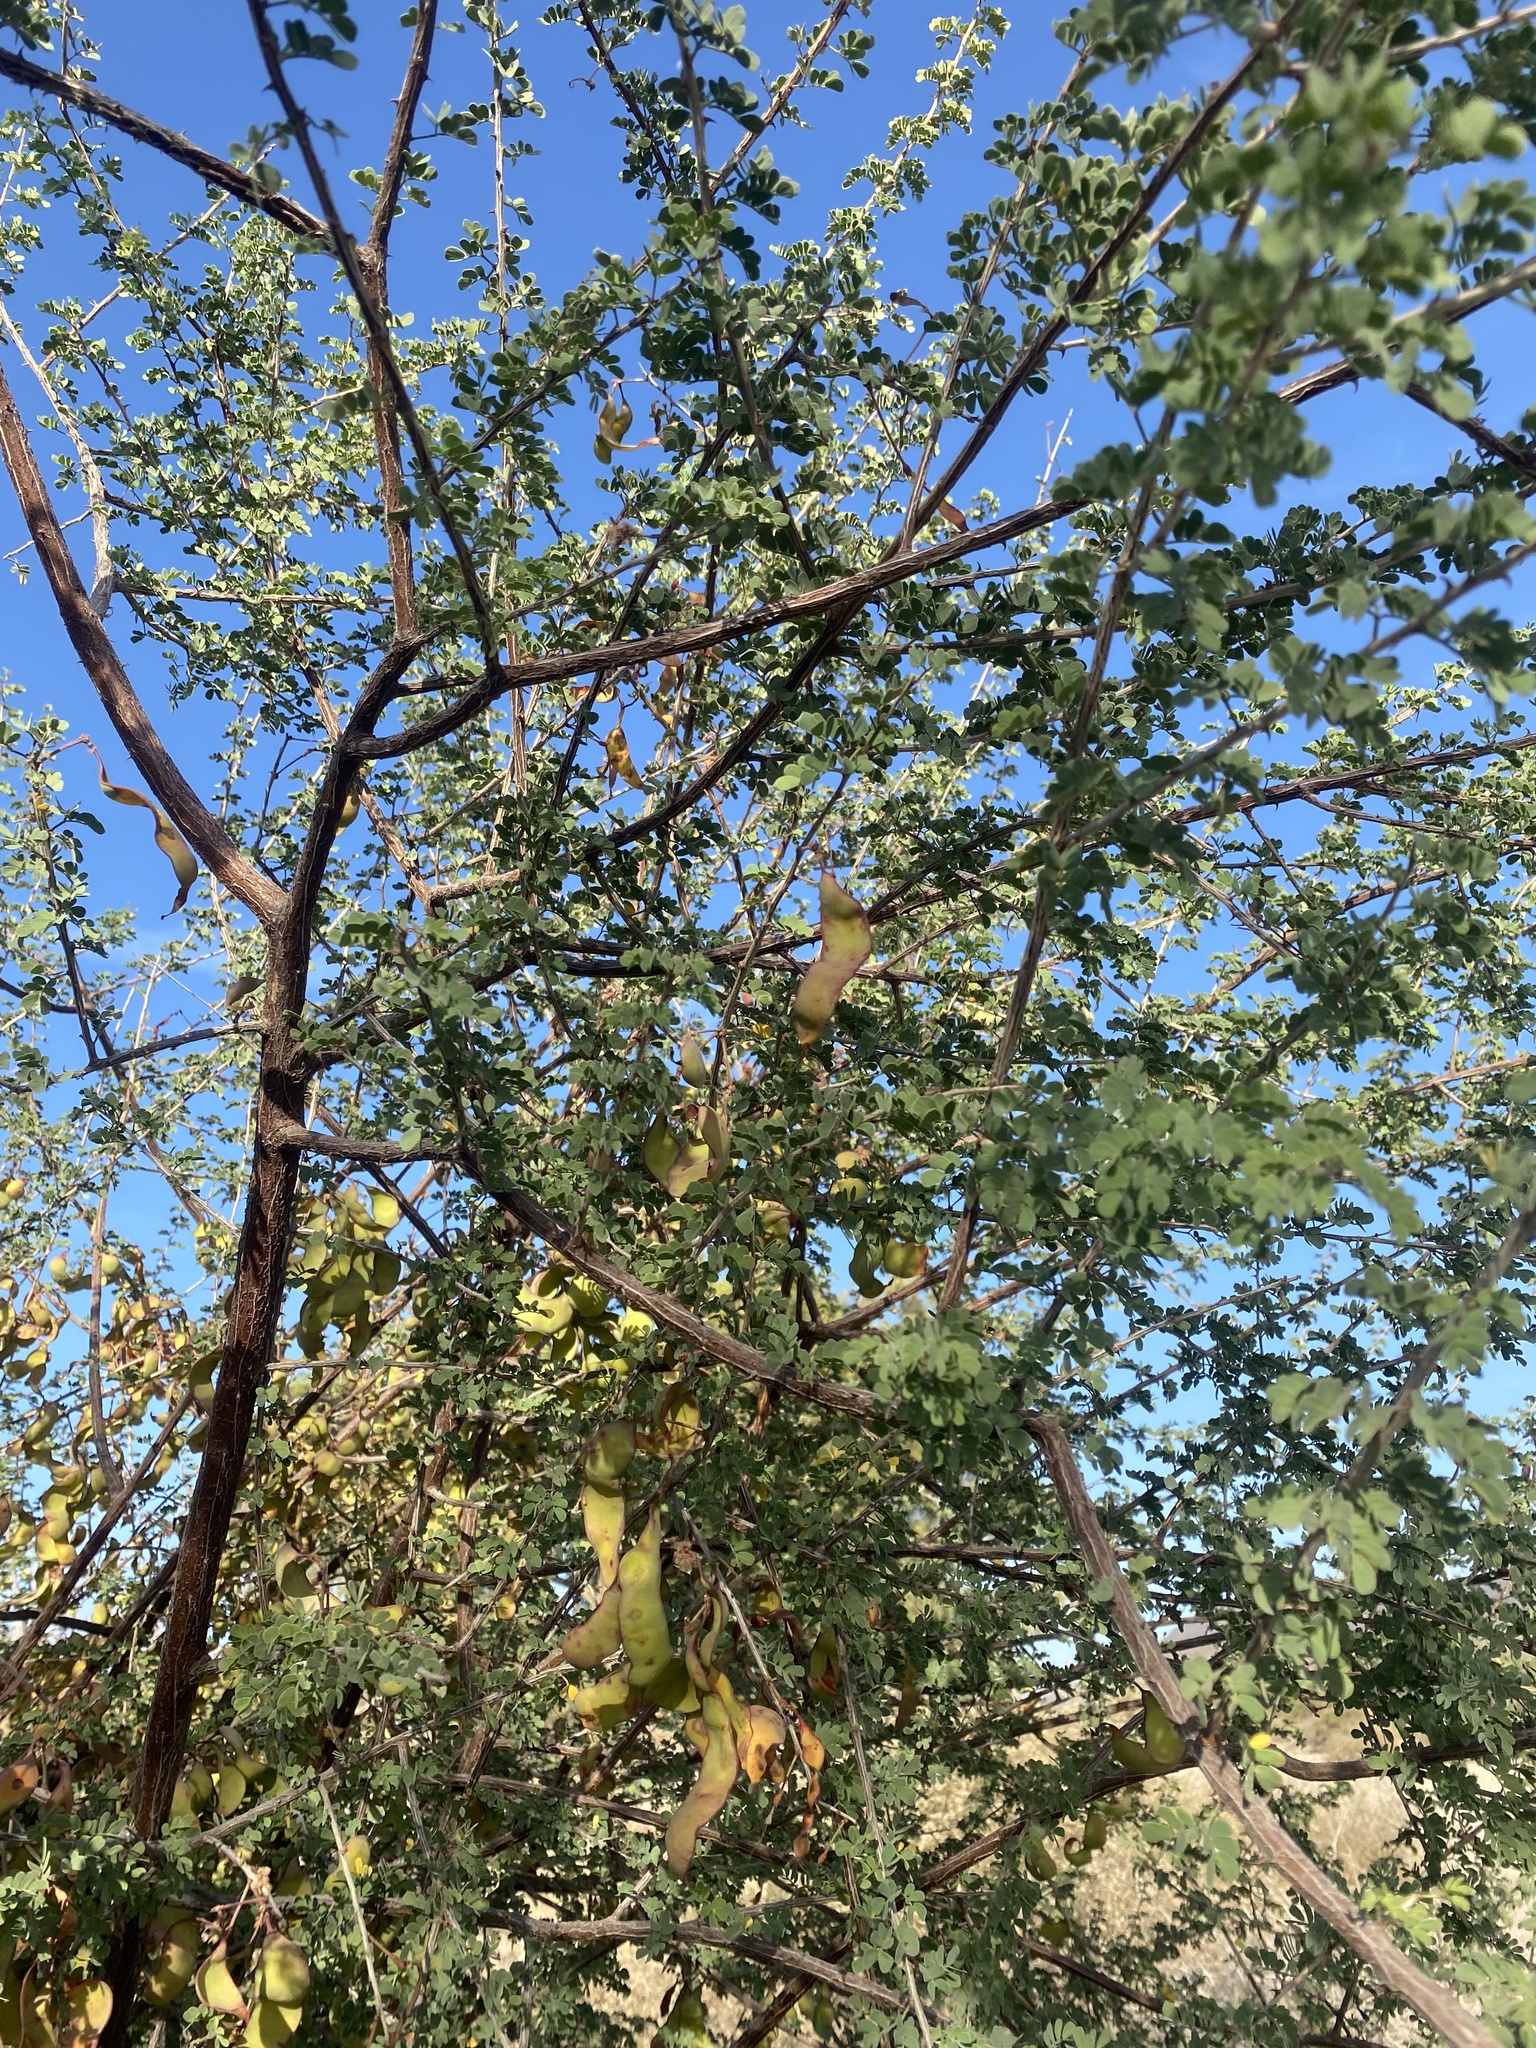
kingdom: Plantae
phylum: Tracheophyta
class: Magnoliopsida
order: Fabales
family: Fabaceae
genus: Prosopis
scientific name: Prosopis articulata
